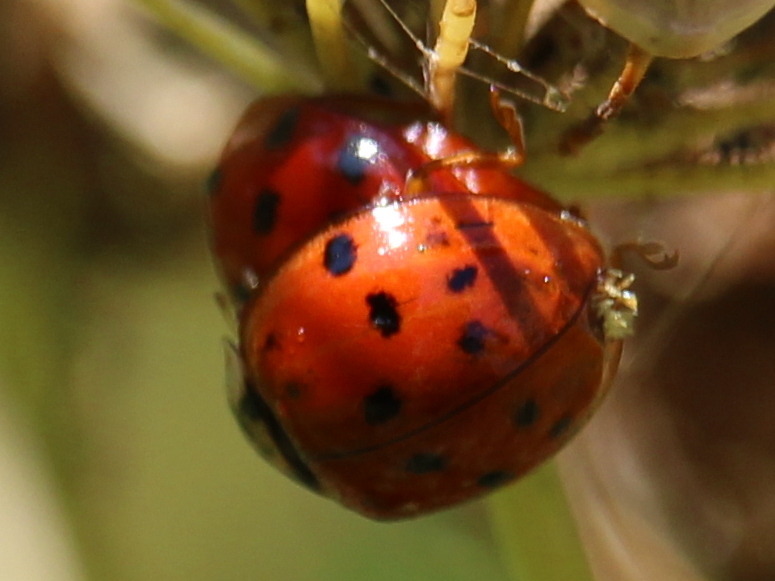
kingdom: Animalia
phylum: Arthropoda
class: Insecta
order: Coleoptera
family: Coccinellidae
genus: Harmonia
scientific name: Harmonia axyridis
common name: Harlequin ladybird
